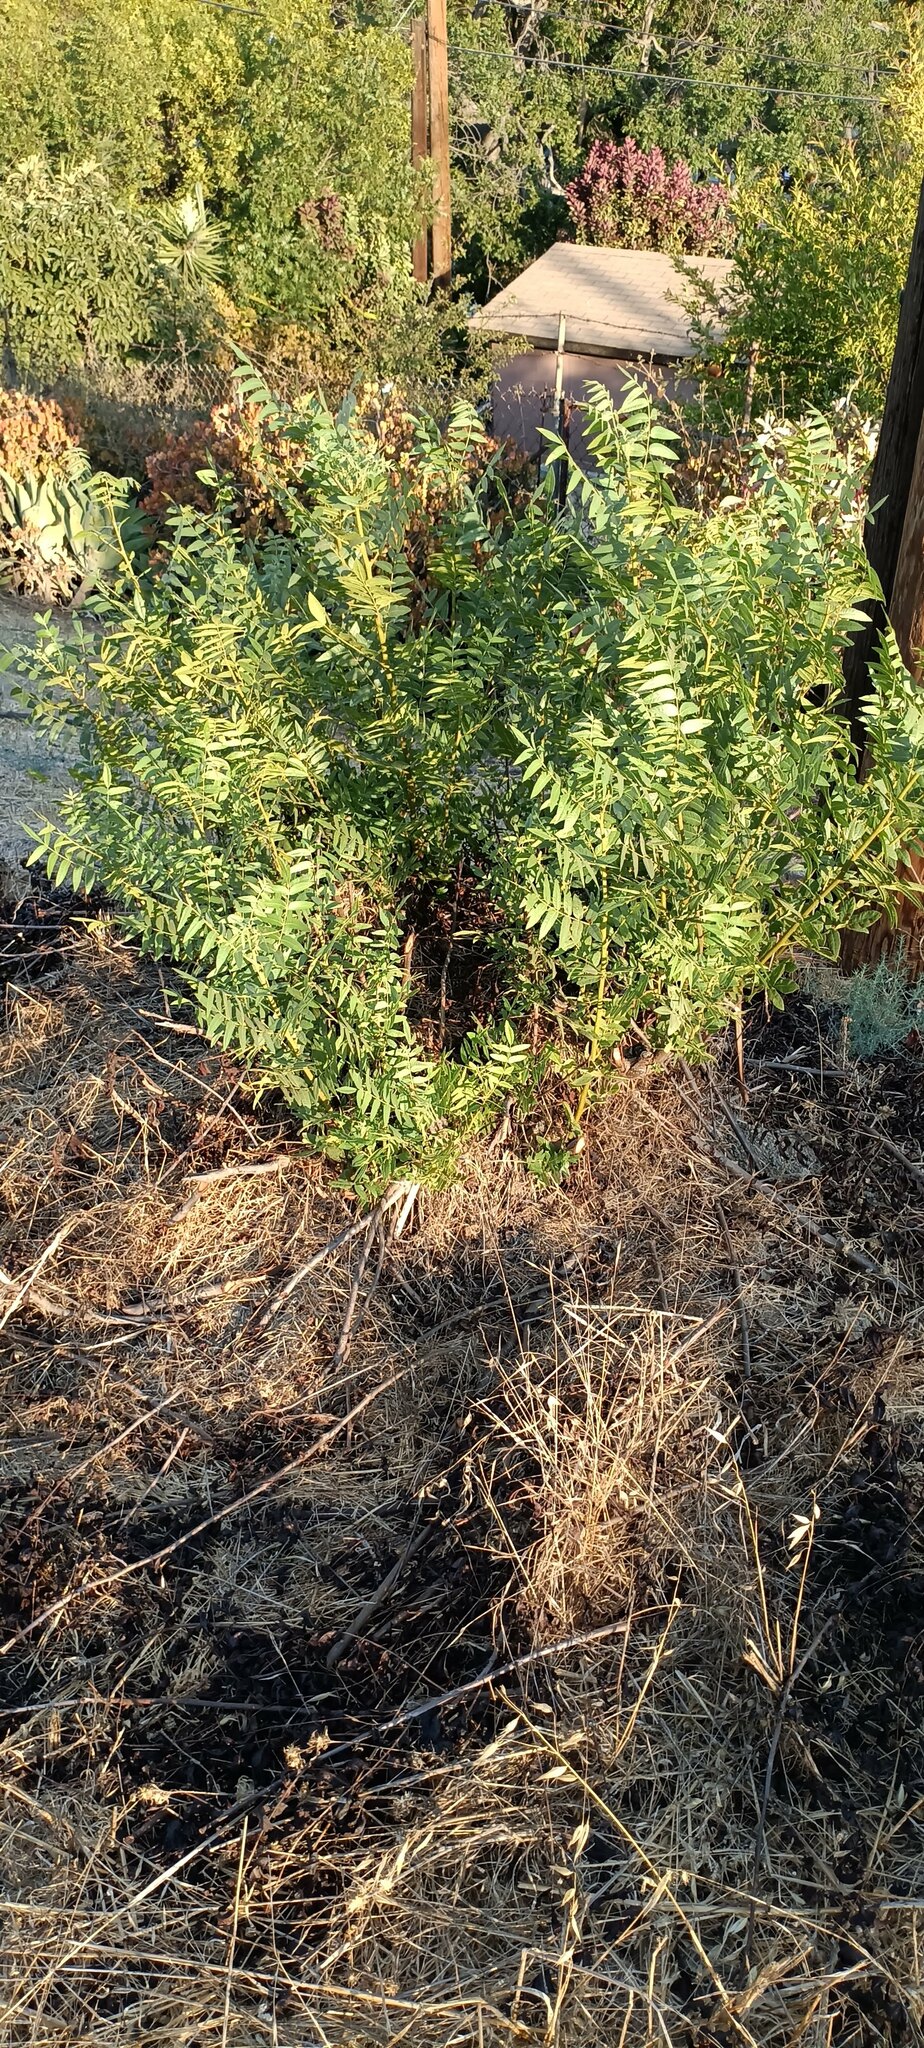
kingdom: Plantae
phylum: Tracheophyta
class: Magnoliopsida
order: Fagales
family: Juglandaceae
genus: Juglans
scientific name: Juglans californica
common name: Southern california black walnut
